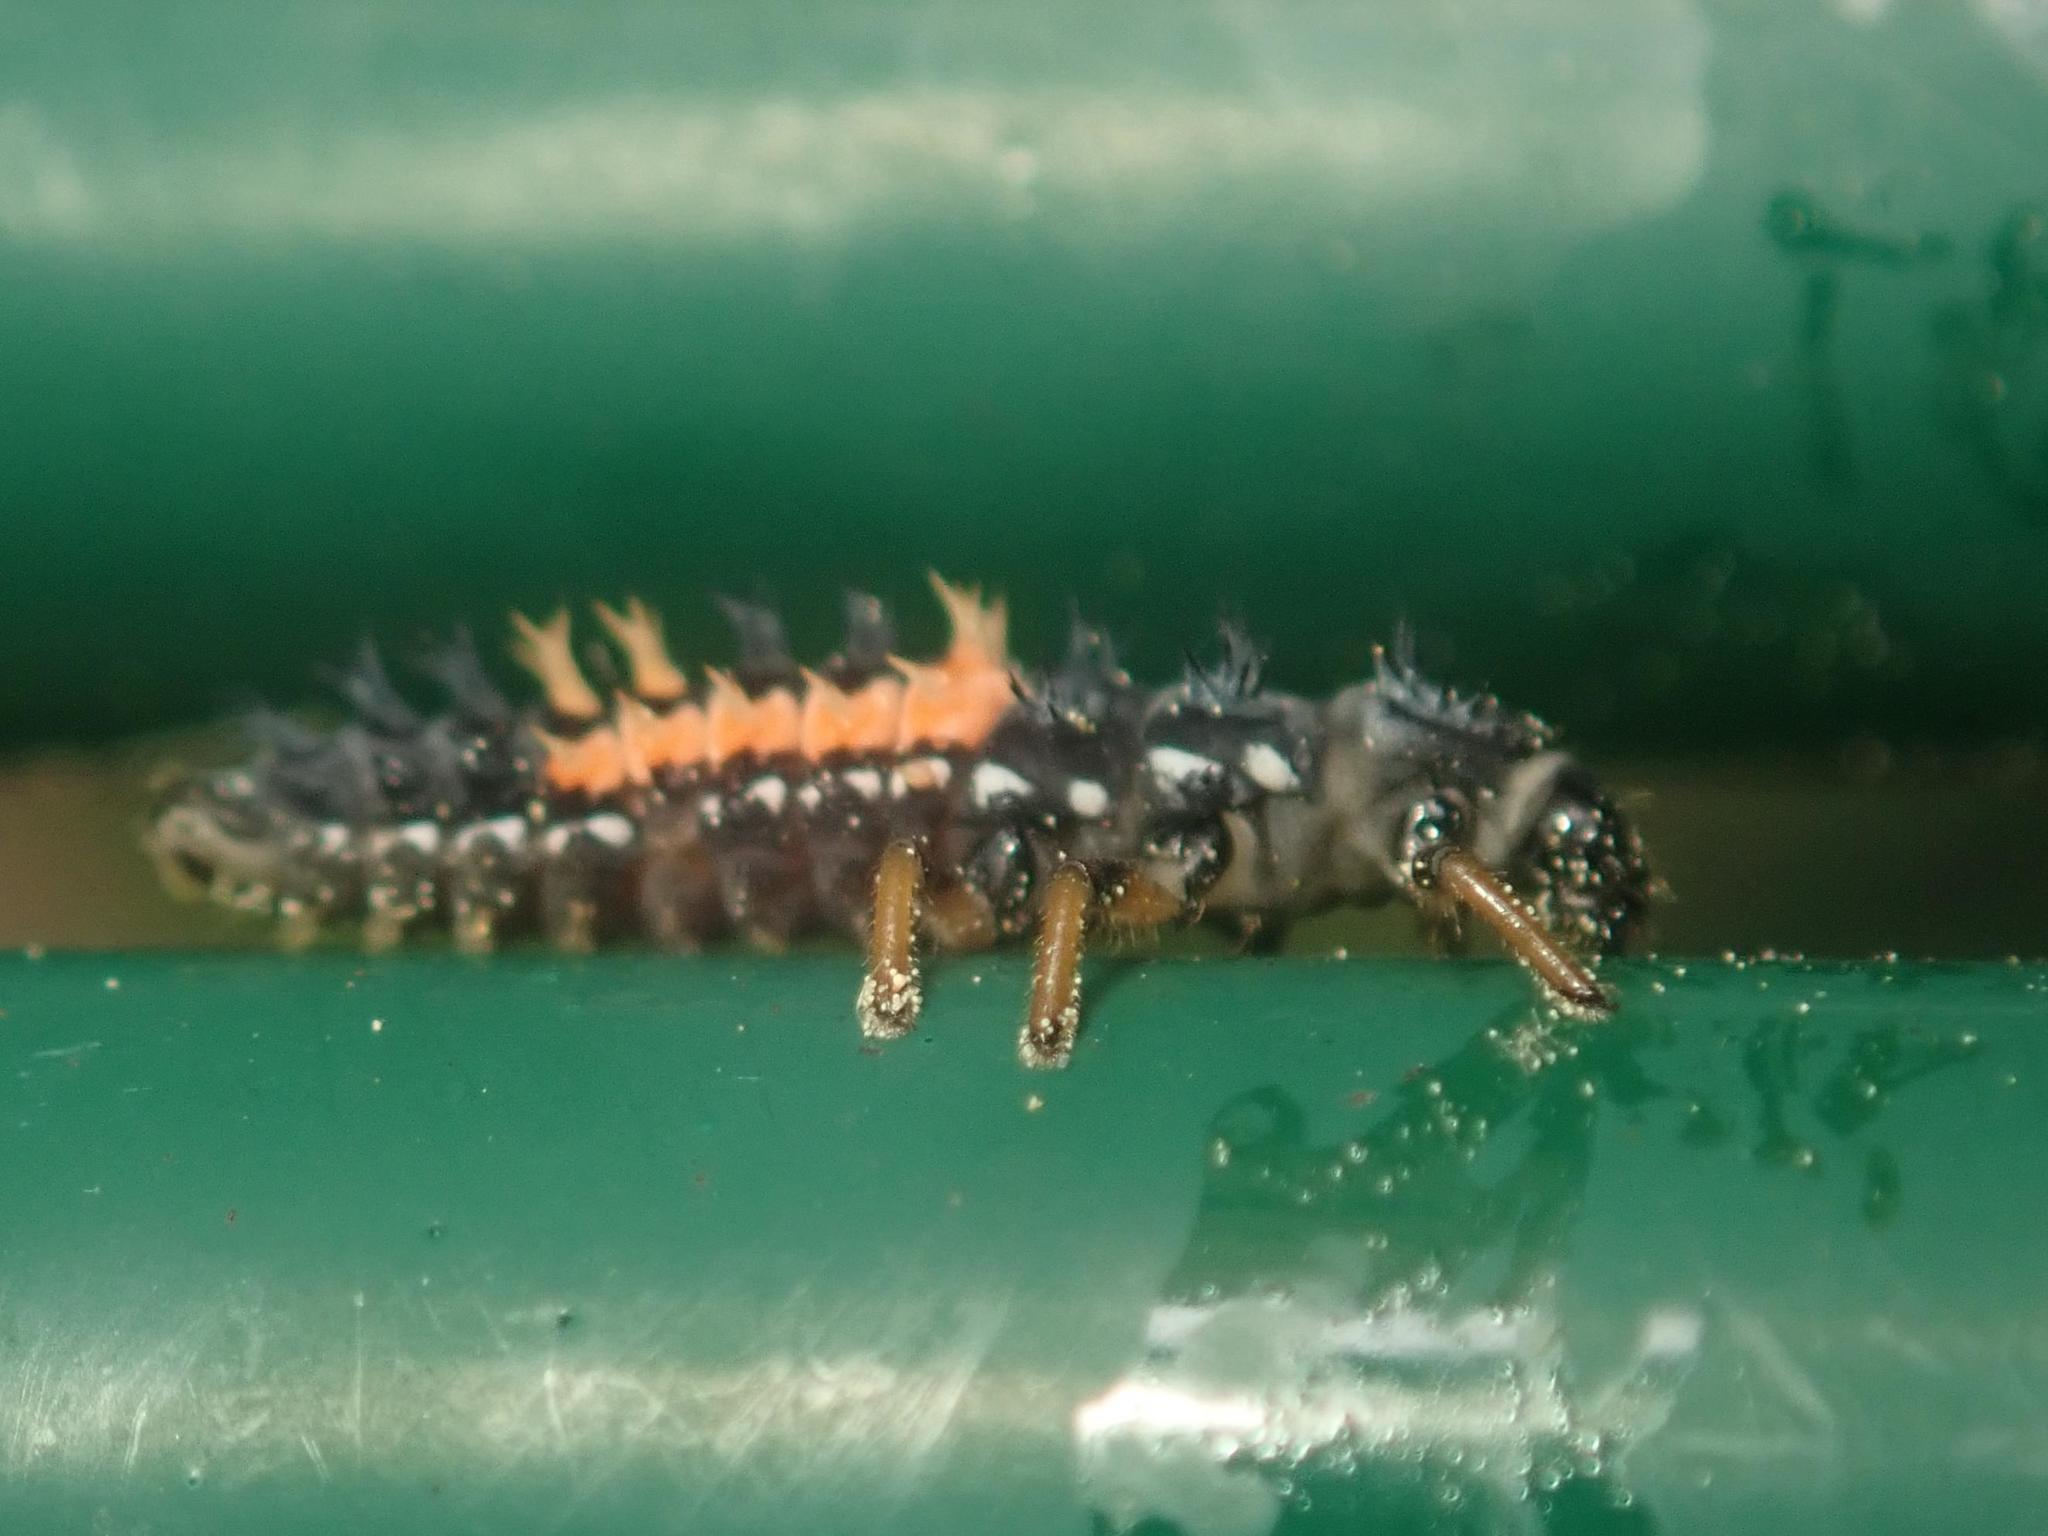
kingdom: Animalia
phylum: Arthropoda
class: Insecta
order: Coleoptera
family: Coccinellidae
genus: Harmonia
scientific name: Harmonia axyridis
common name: Harlequin ladybird
